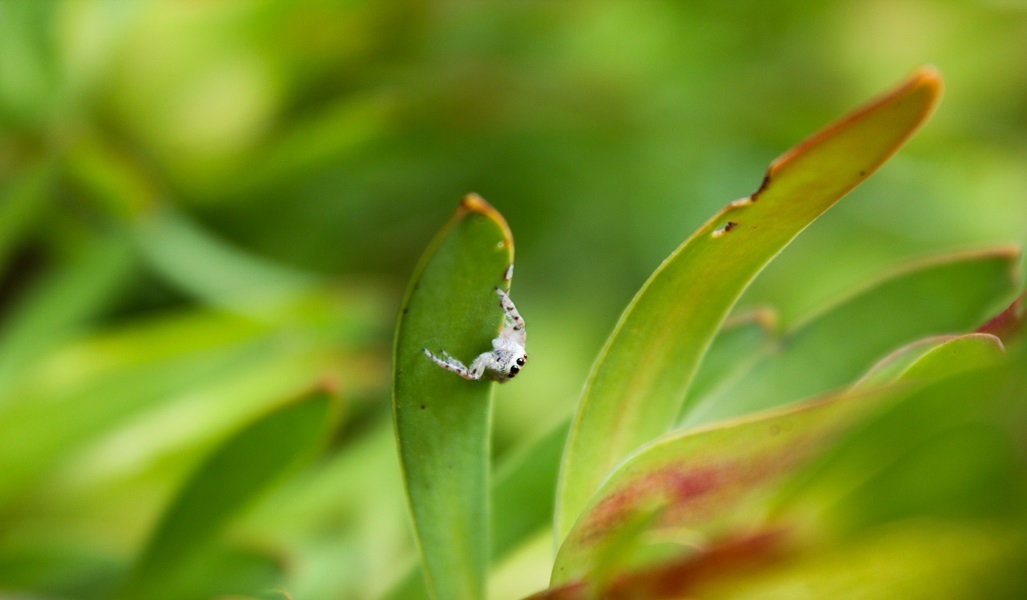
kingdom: Animalia
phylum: Arthropoda
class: Arachnida
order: Araneae
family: Salticidae
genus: Opisthoncus
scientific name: Opisthoncus polyphemus
